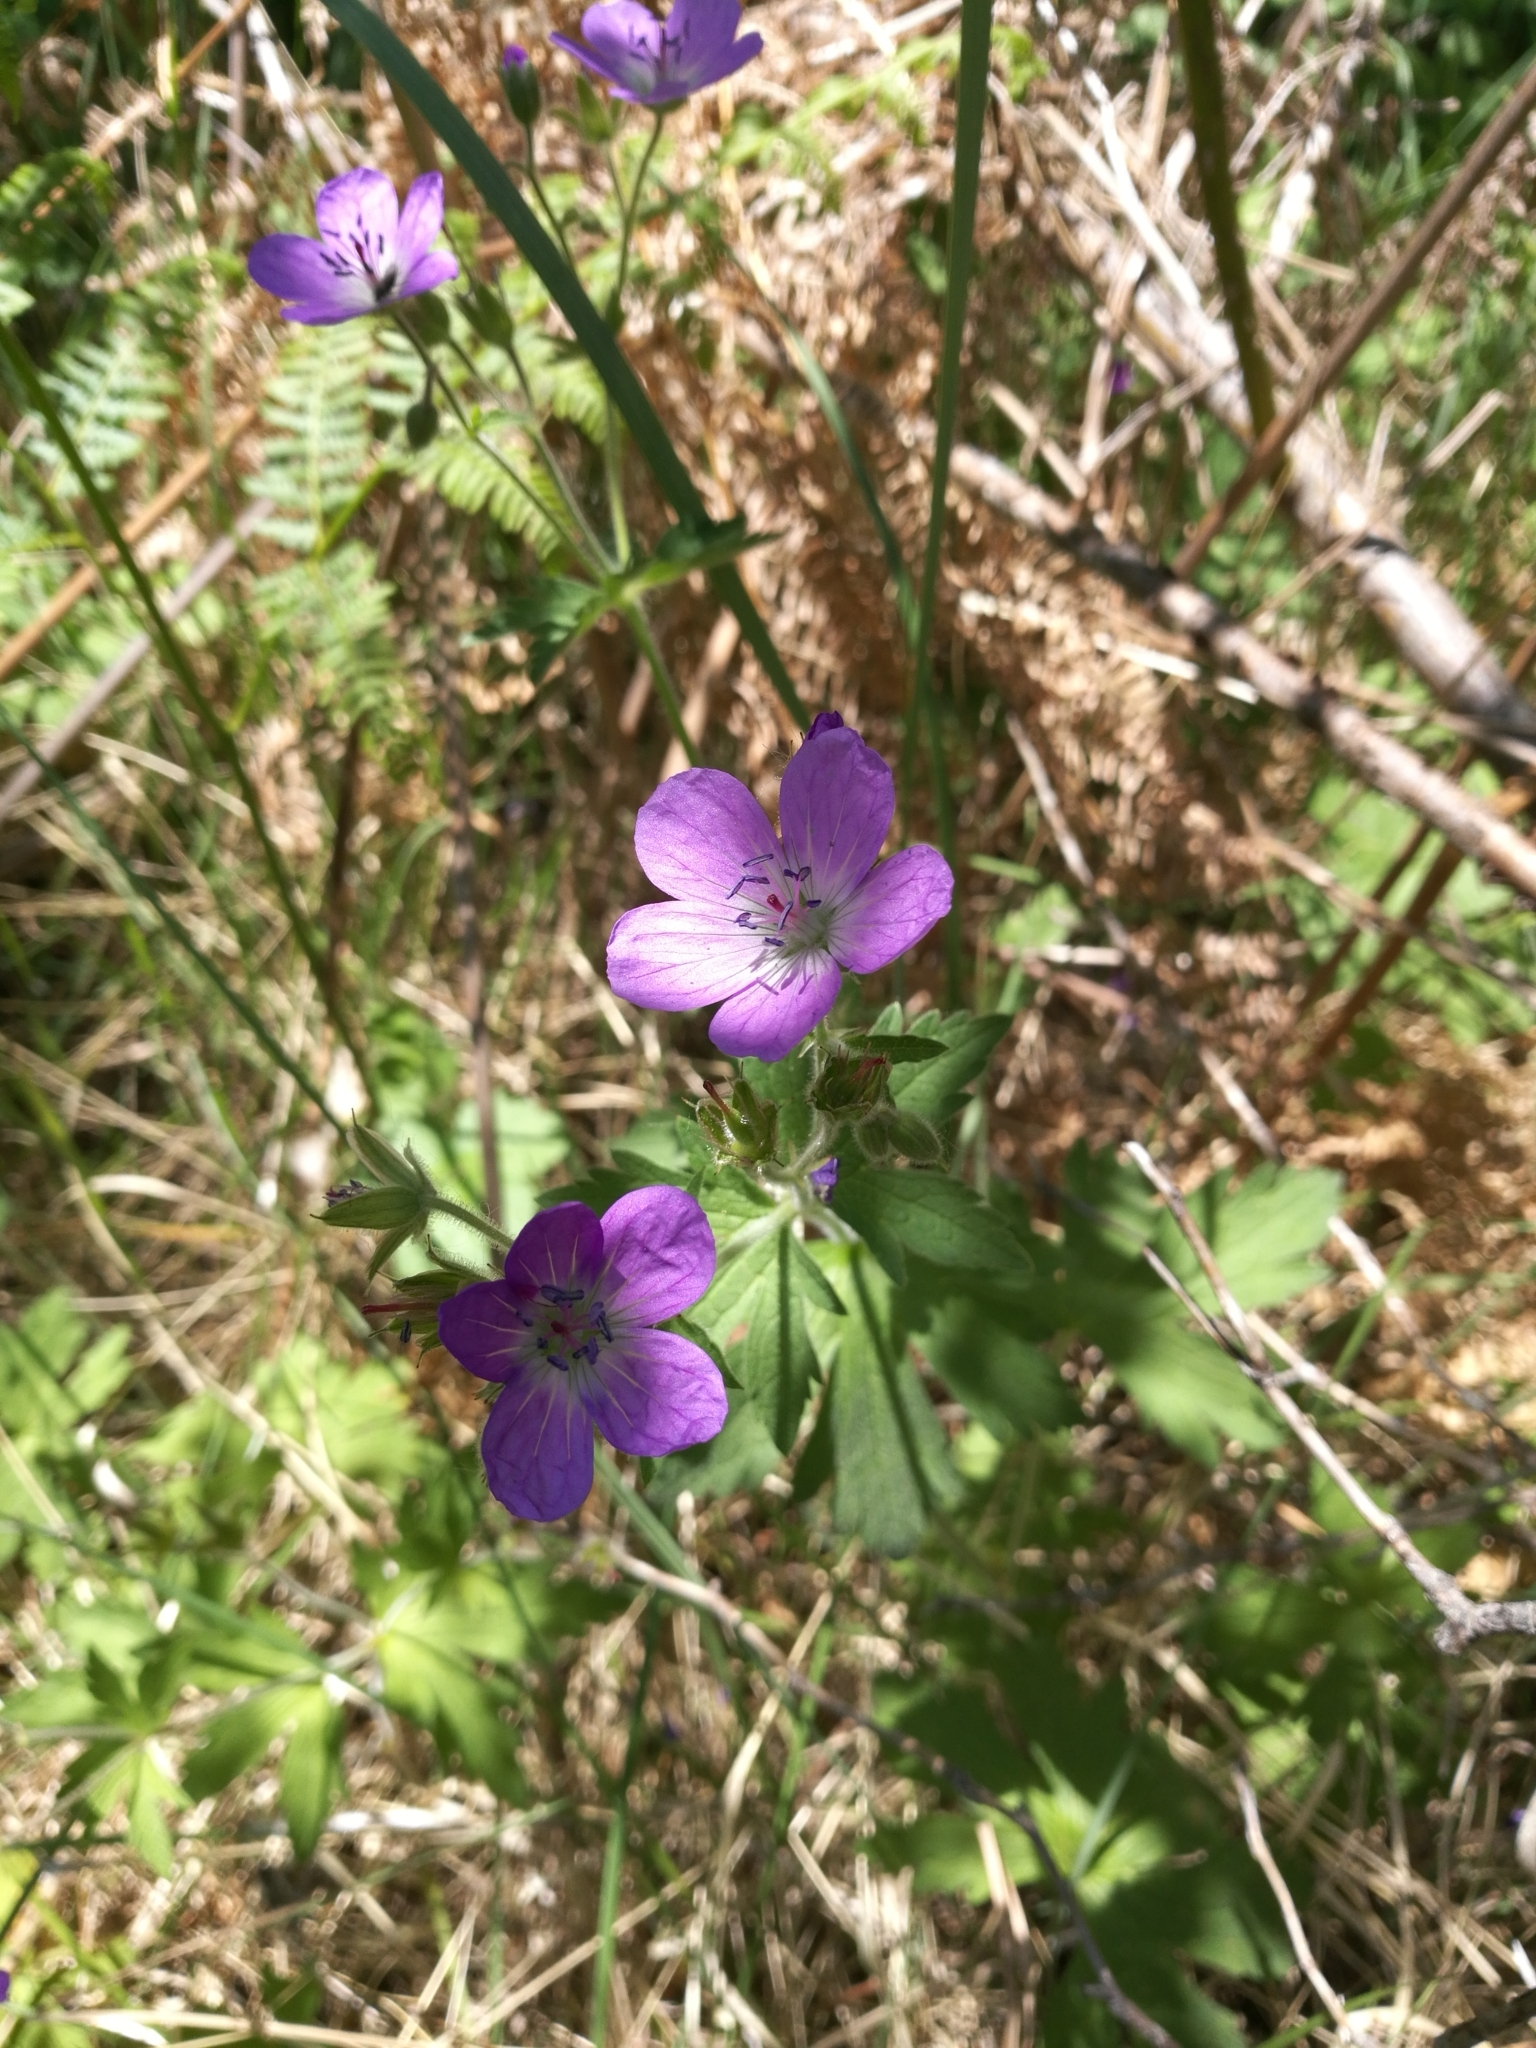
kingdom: Plantae
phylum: Tracheophyta
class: Magnoliopsida
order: Geraniales
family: Geraniaceae
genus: Geranium
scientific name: Geranium sylvaticum
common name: Wood crane's-bill
